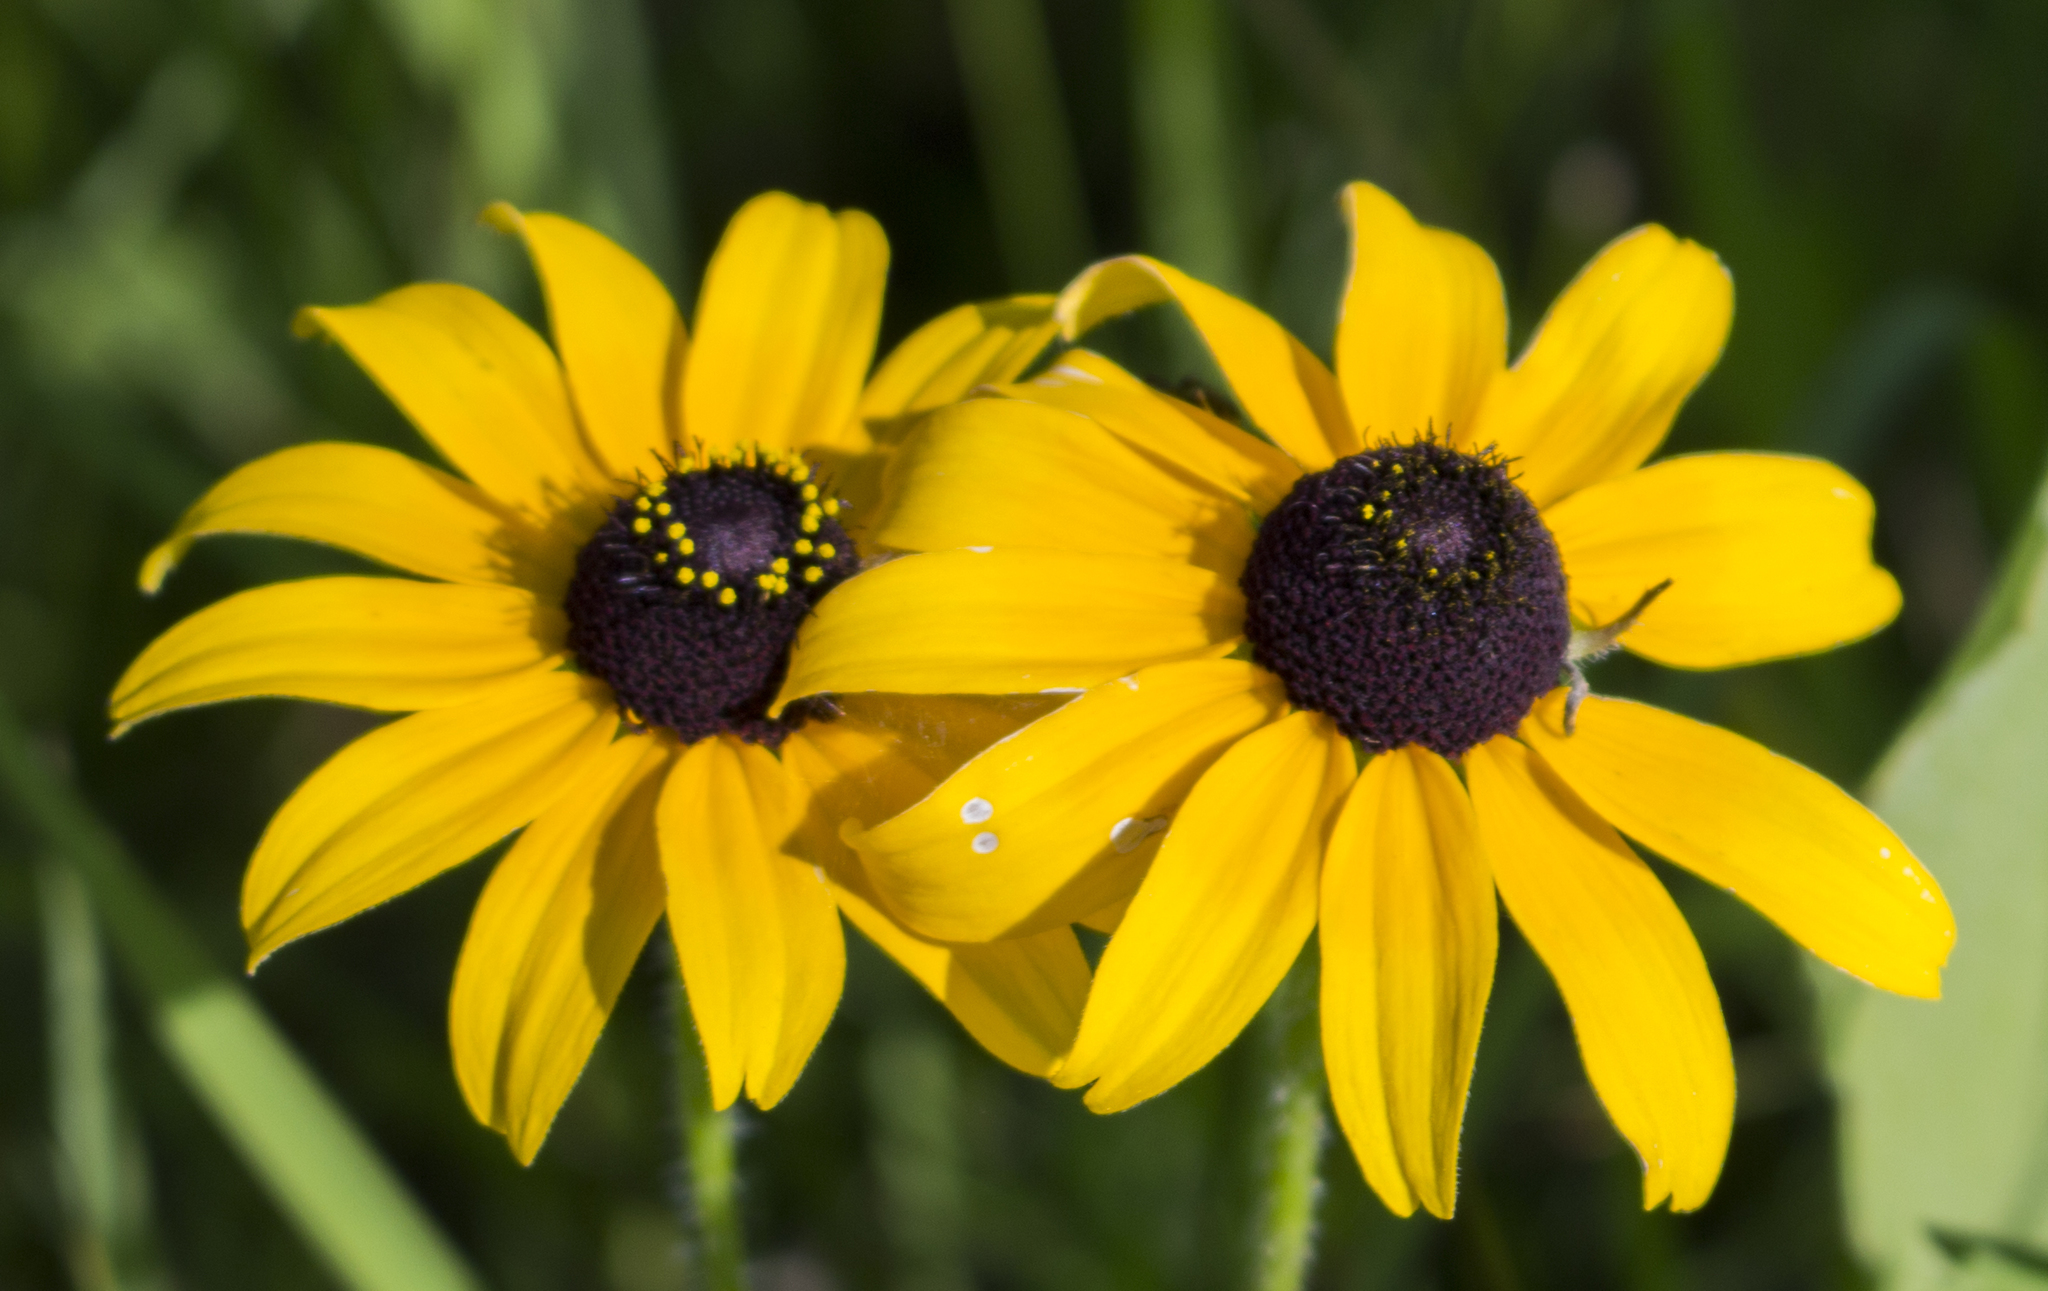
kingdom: Plantae
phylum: Tracheophyta
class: Magnoliopsida
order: Asterales
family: Asteraceae
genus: Rudbeckia
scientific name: Rudbeckia hirta
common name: Black-eyed-susan
